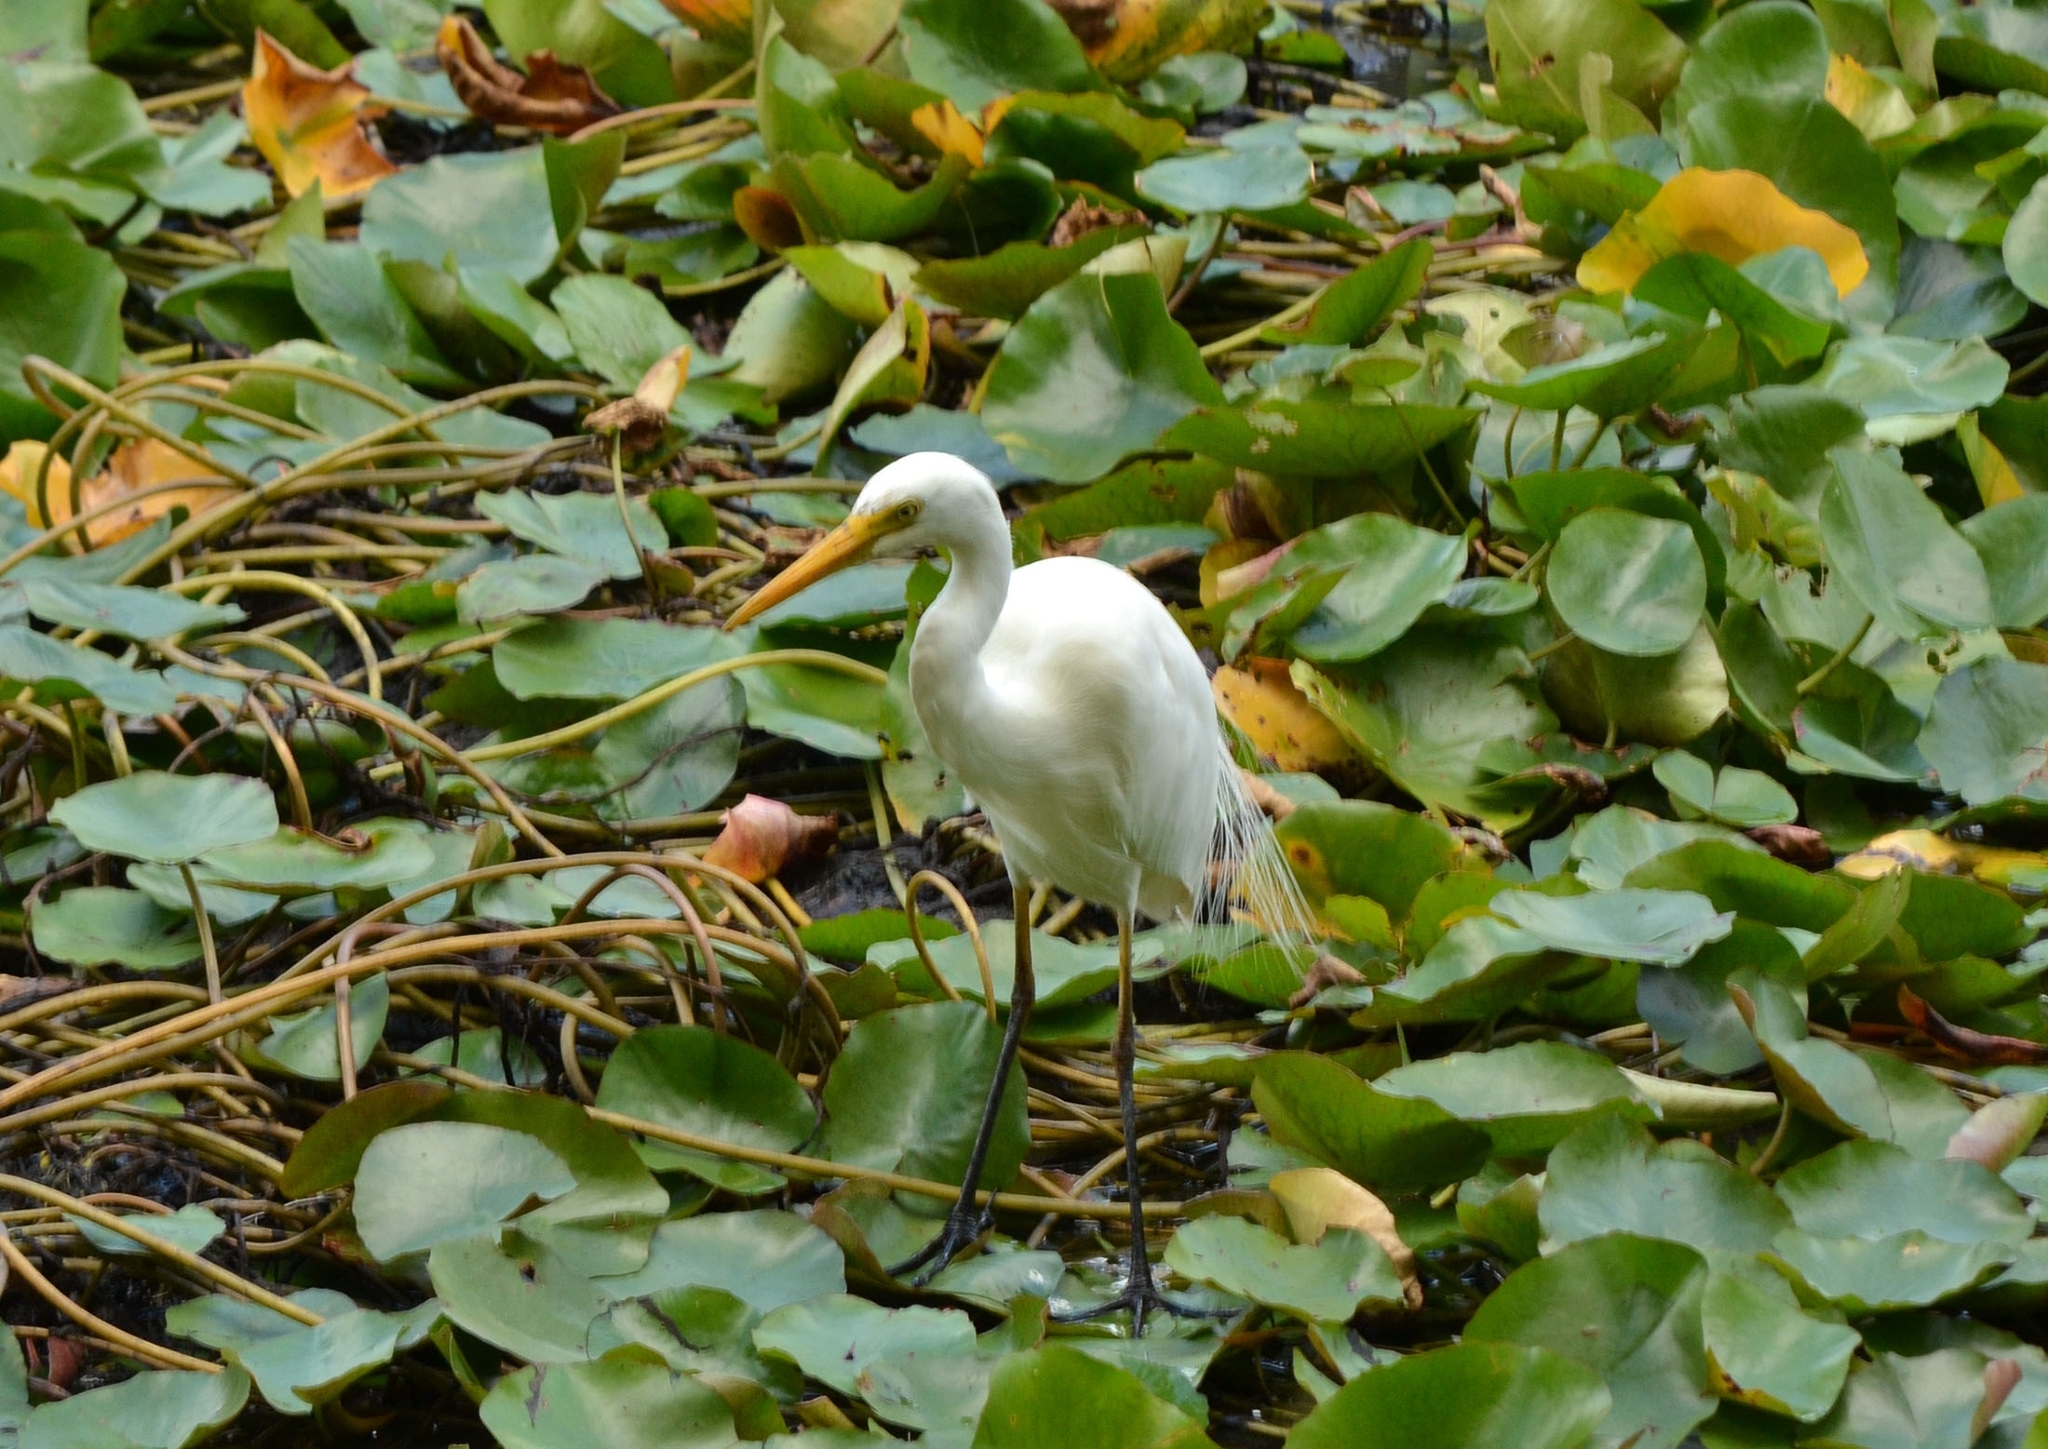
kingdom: Animalia
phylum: Chordata
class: Aves
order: Pelecaniformes
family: Ardeidae
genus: Egretta
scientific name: Egretta intermedia
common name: Intermediate egret
